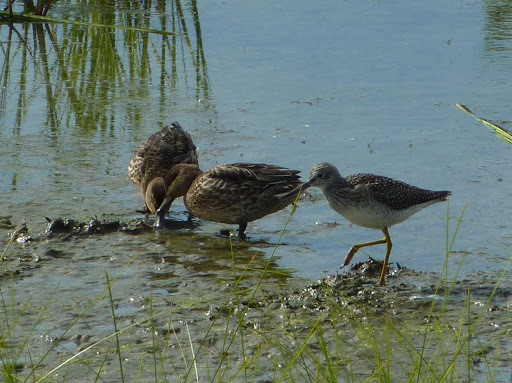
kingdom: Animalia
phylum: Chordata
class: Aves
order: Anseriformes
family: Anatidae
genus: Anas
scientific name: Anas crecca
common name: Eurasian teal
